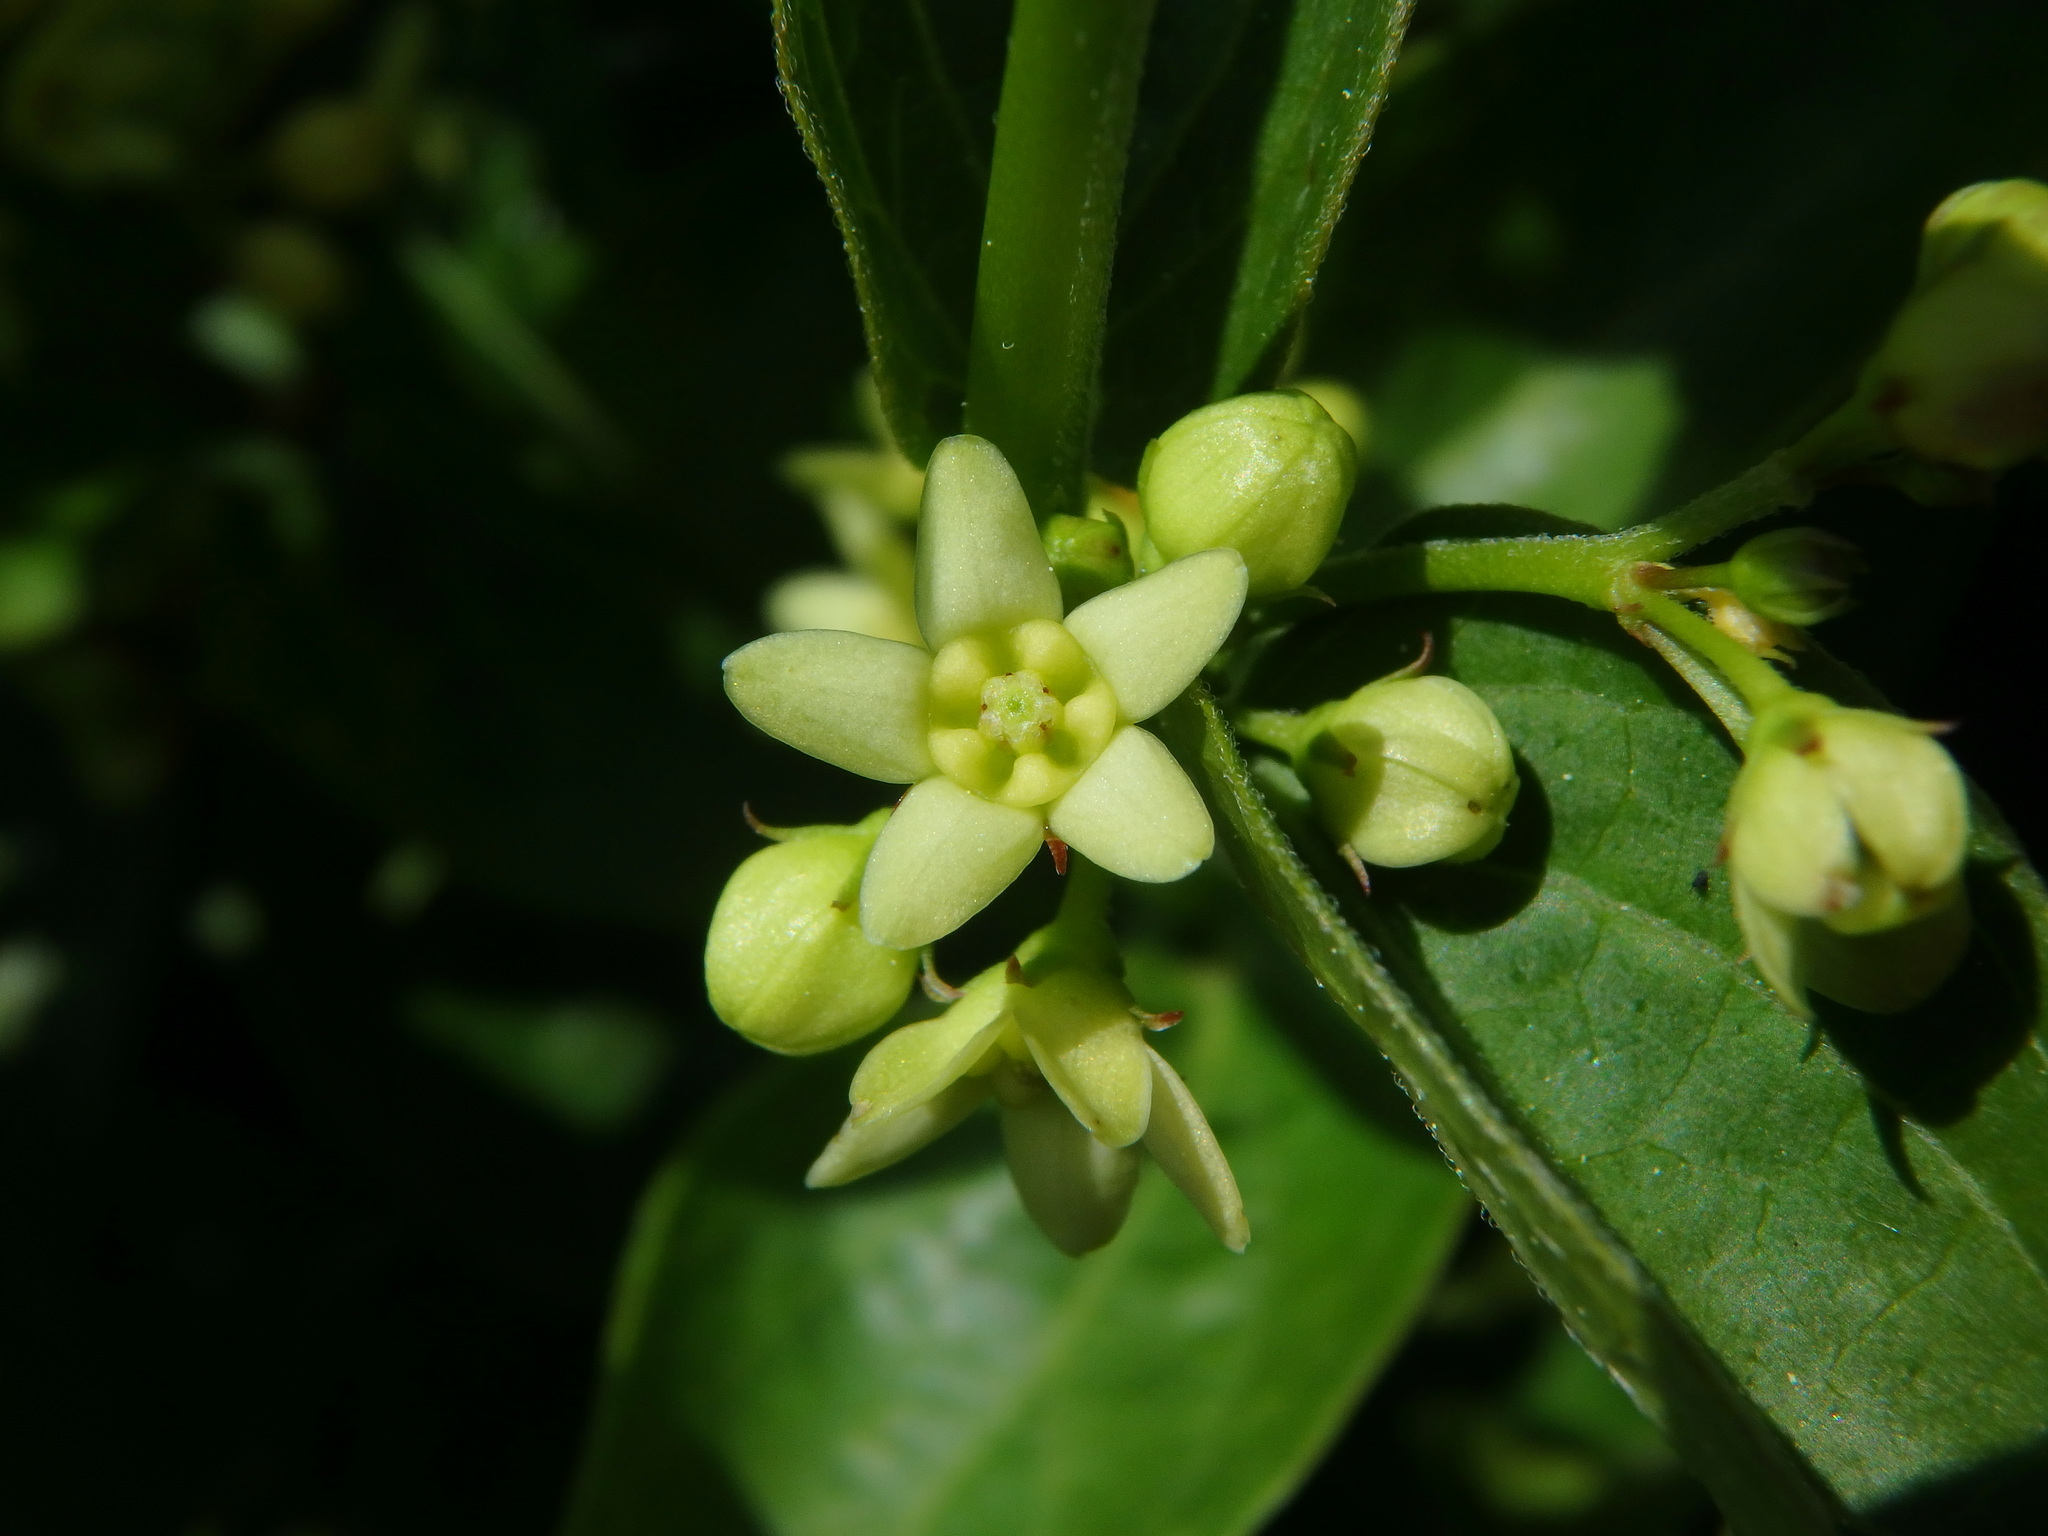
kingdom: Plantae
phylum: Tracheophyta
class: Magnoliopsida
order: Gentianales
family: Apocynaceae
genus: Vincetoxicum
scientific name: Vincetoxicum hirundinaria
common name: White swallowwort
